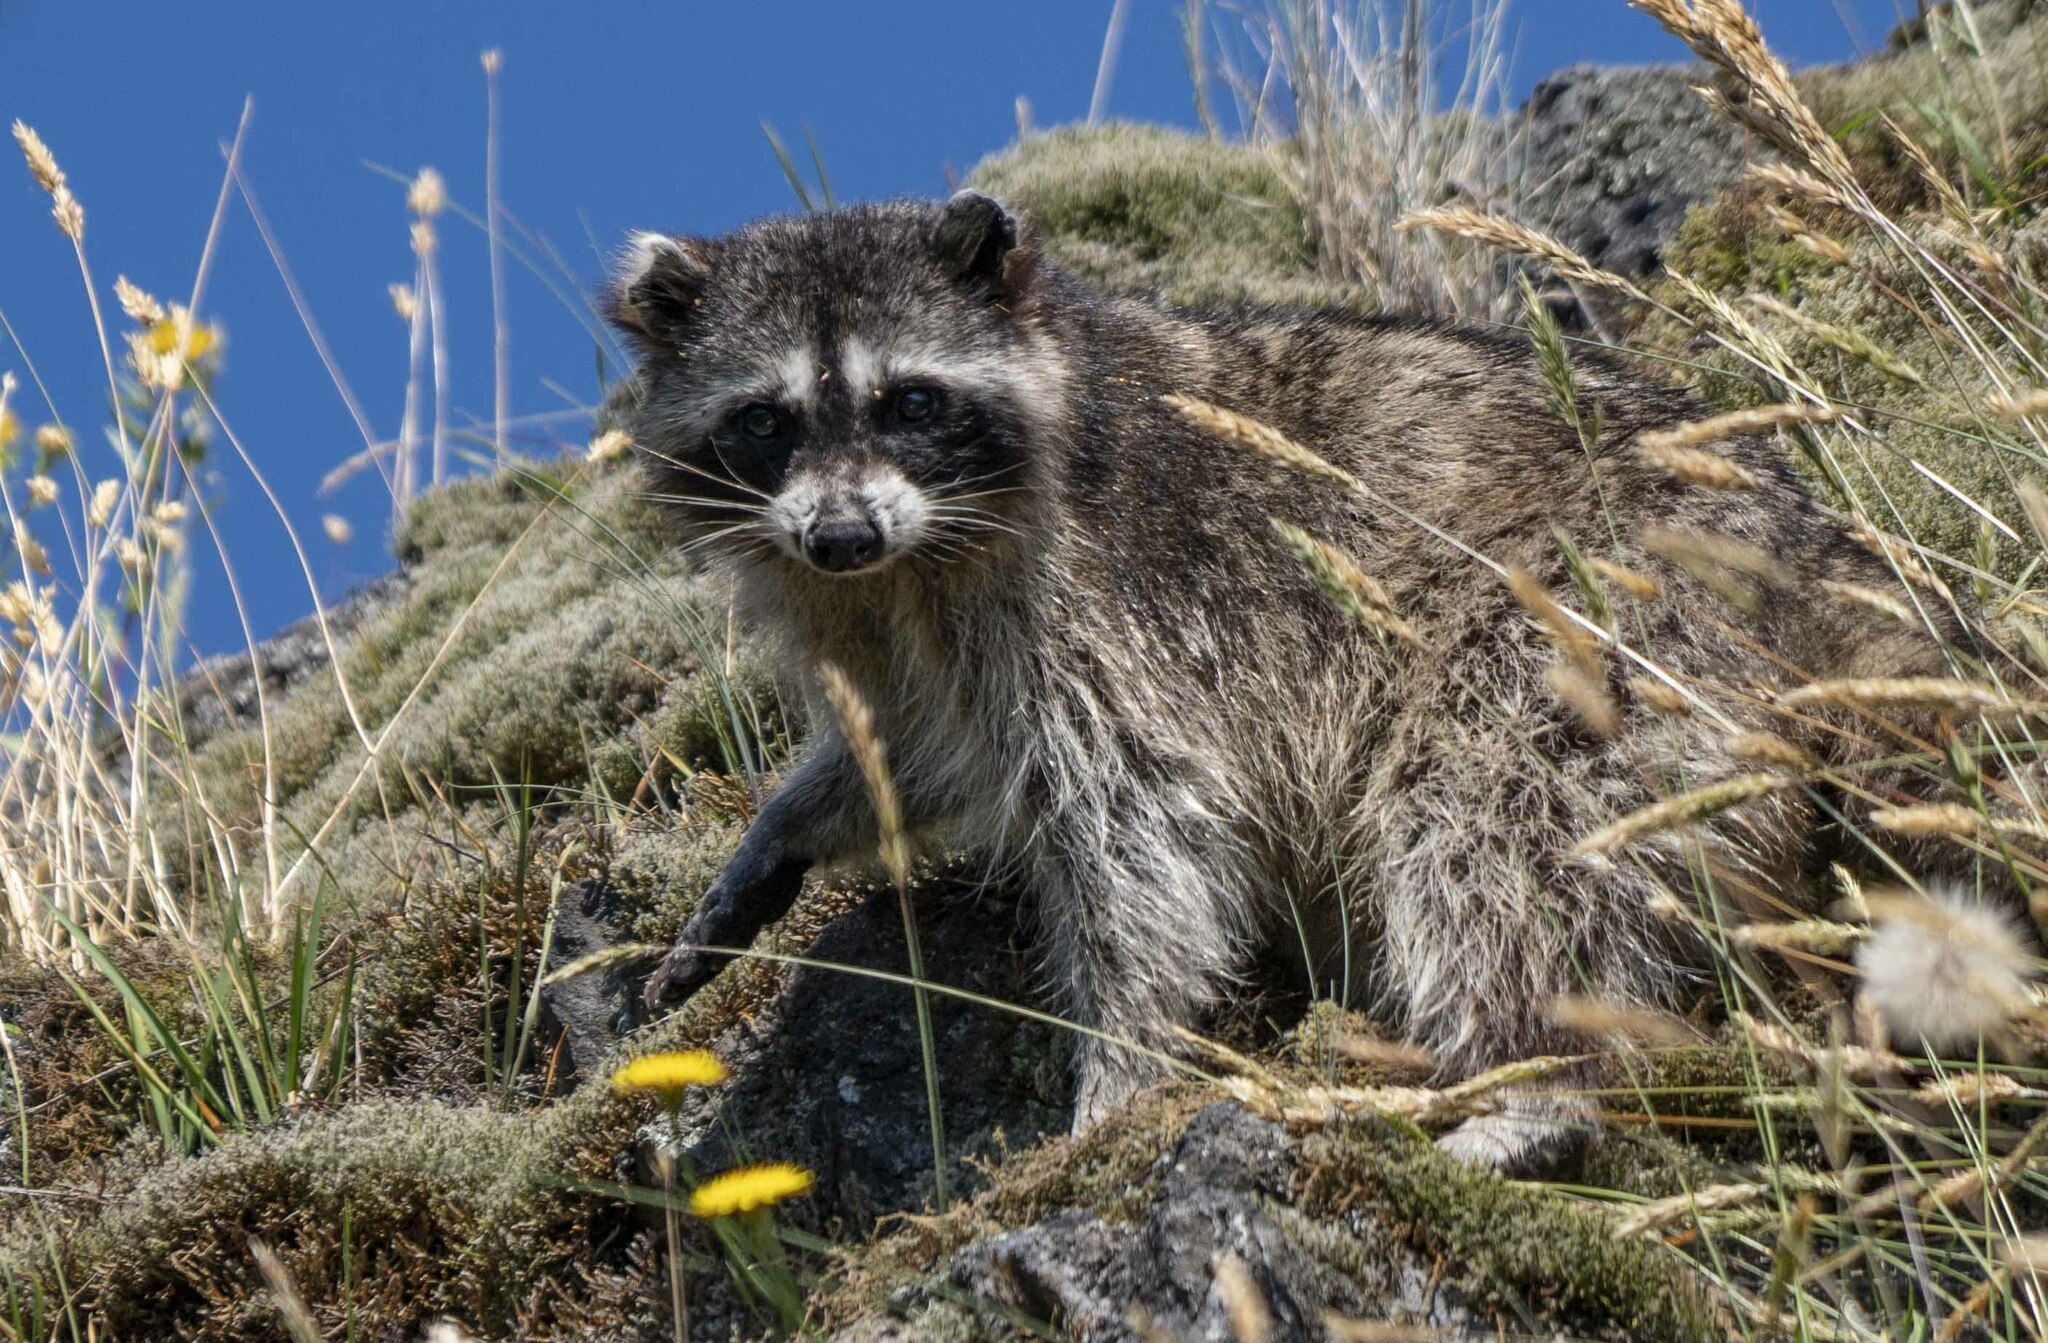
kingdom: Animalia
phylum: Chordata
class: Mammalia
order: Carnivora
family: Procyonidae
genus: Procyon
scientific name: Procyon lotor
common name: Raccoon
